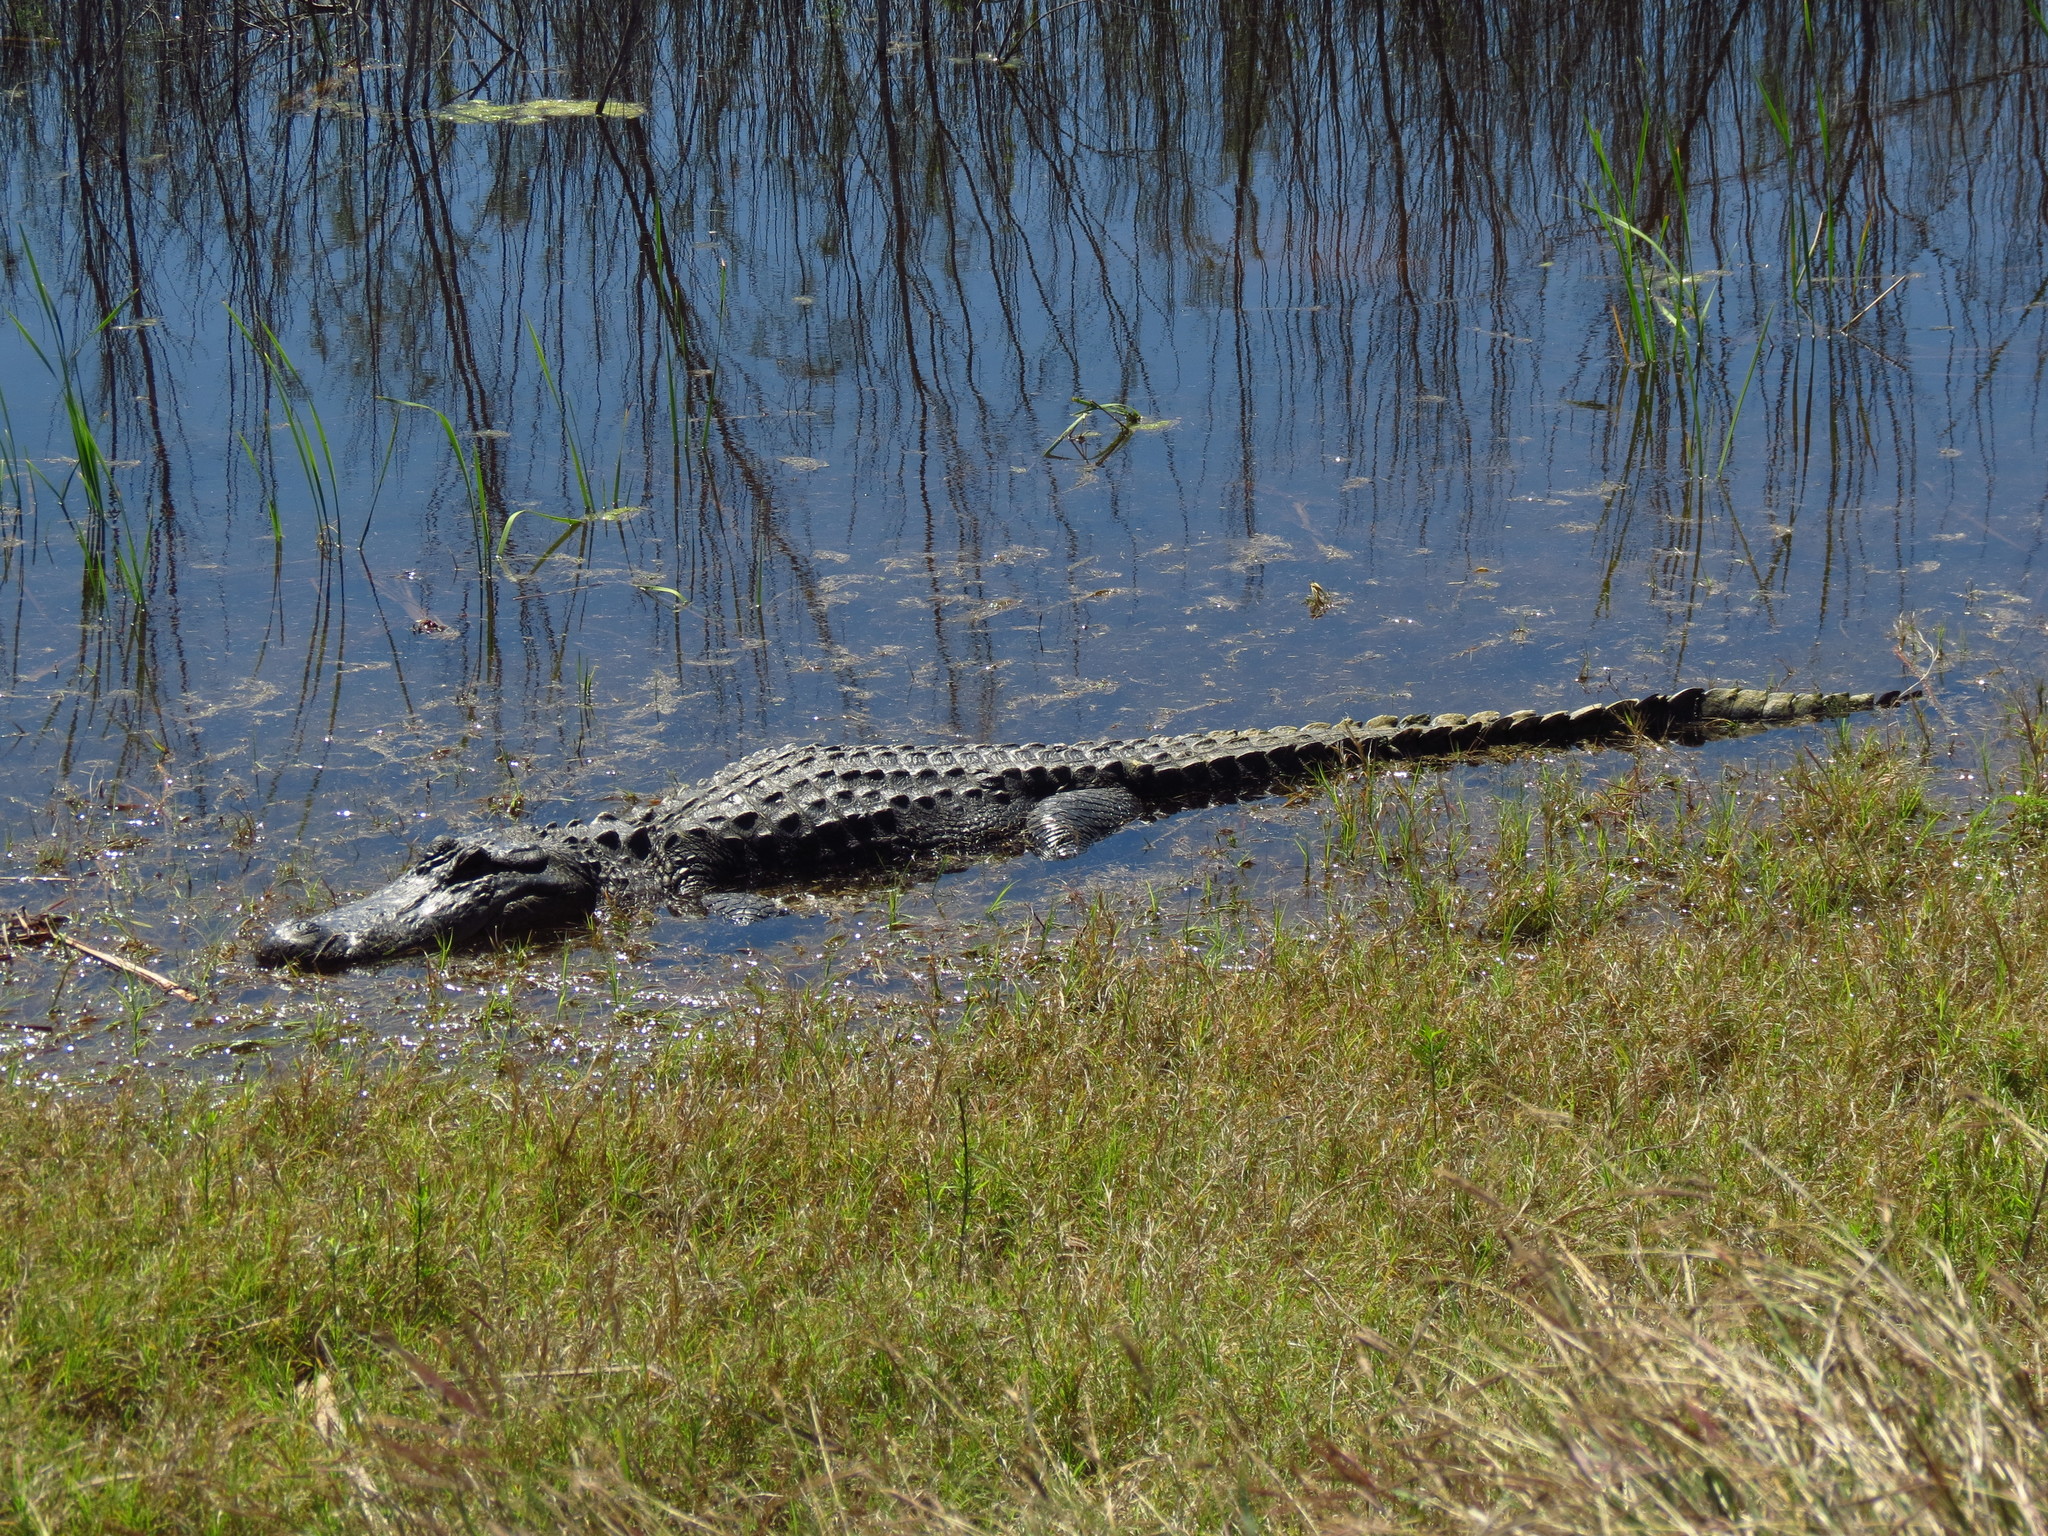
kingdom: Animalia
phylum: Chordata
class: Crocodylia
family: Alligatoridae
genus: Alligator
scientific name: Alligator mississippiensis
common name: American alligator
